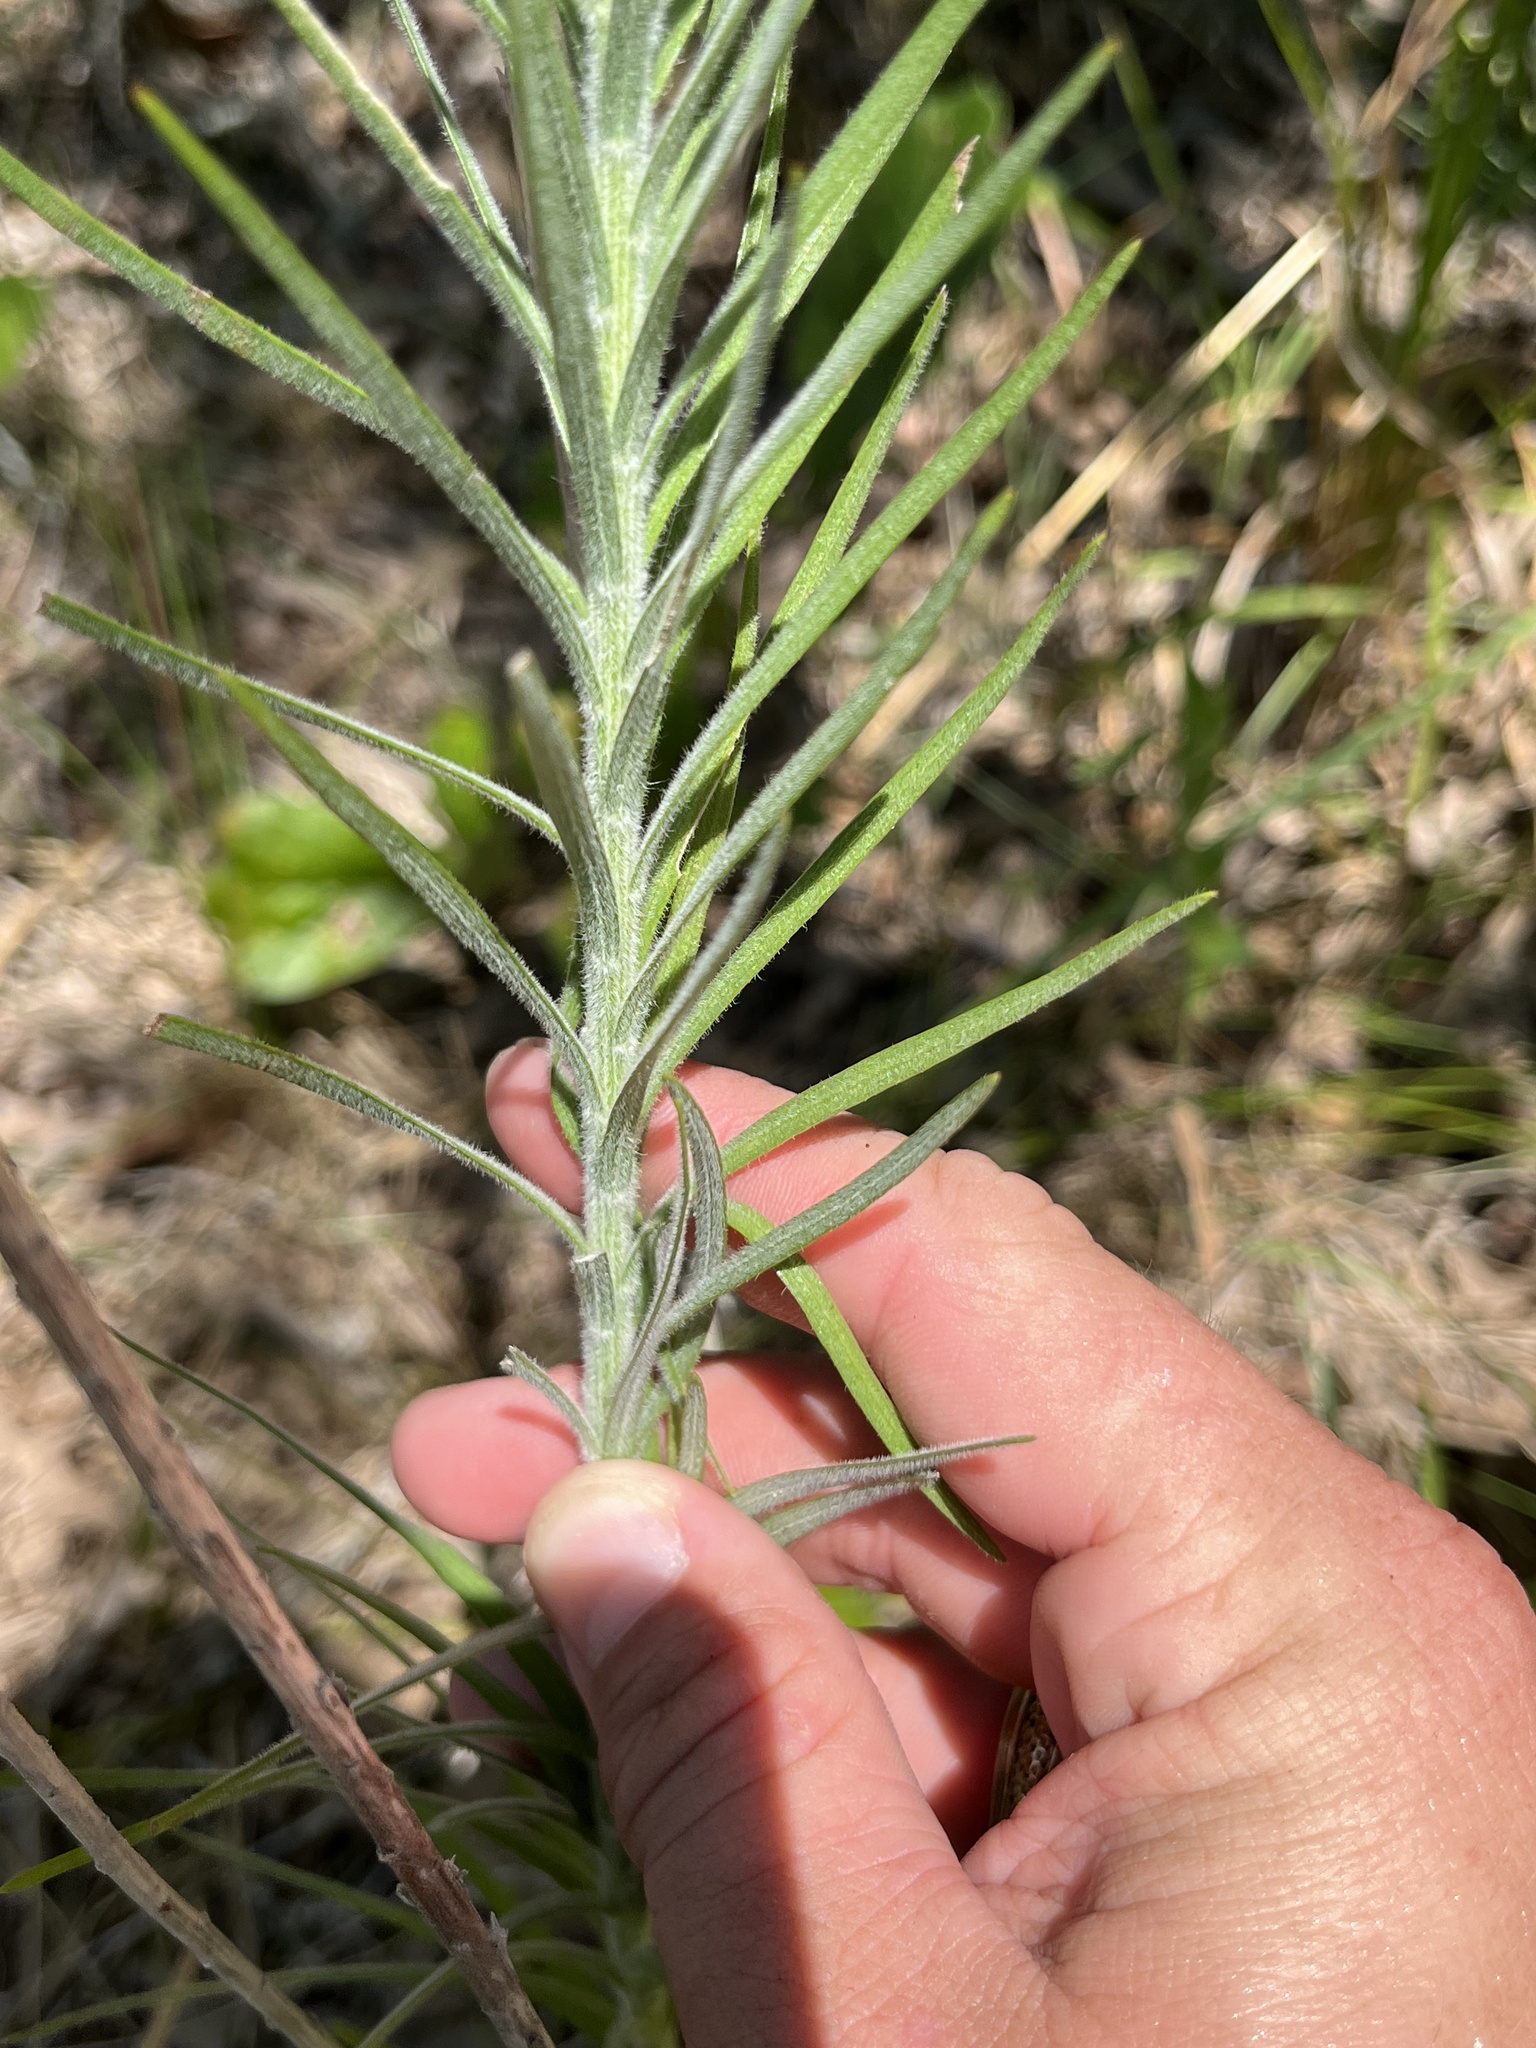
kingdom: Plantae
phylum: Tracheophyta
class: Magnoliopsida
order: Asterales
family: Asteraceae
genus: Liatris
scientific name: Liatris pycnostachya
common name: Cattail gayfeather
